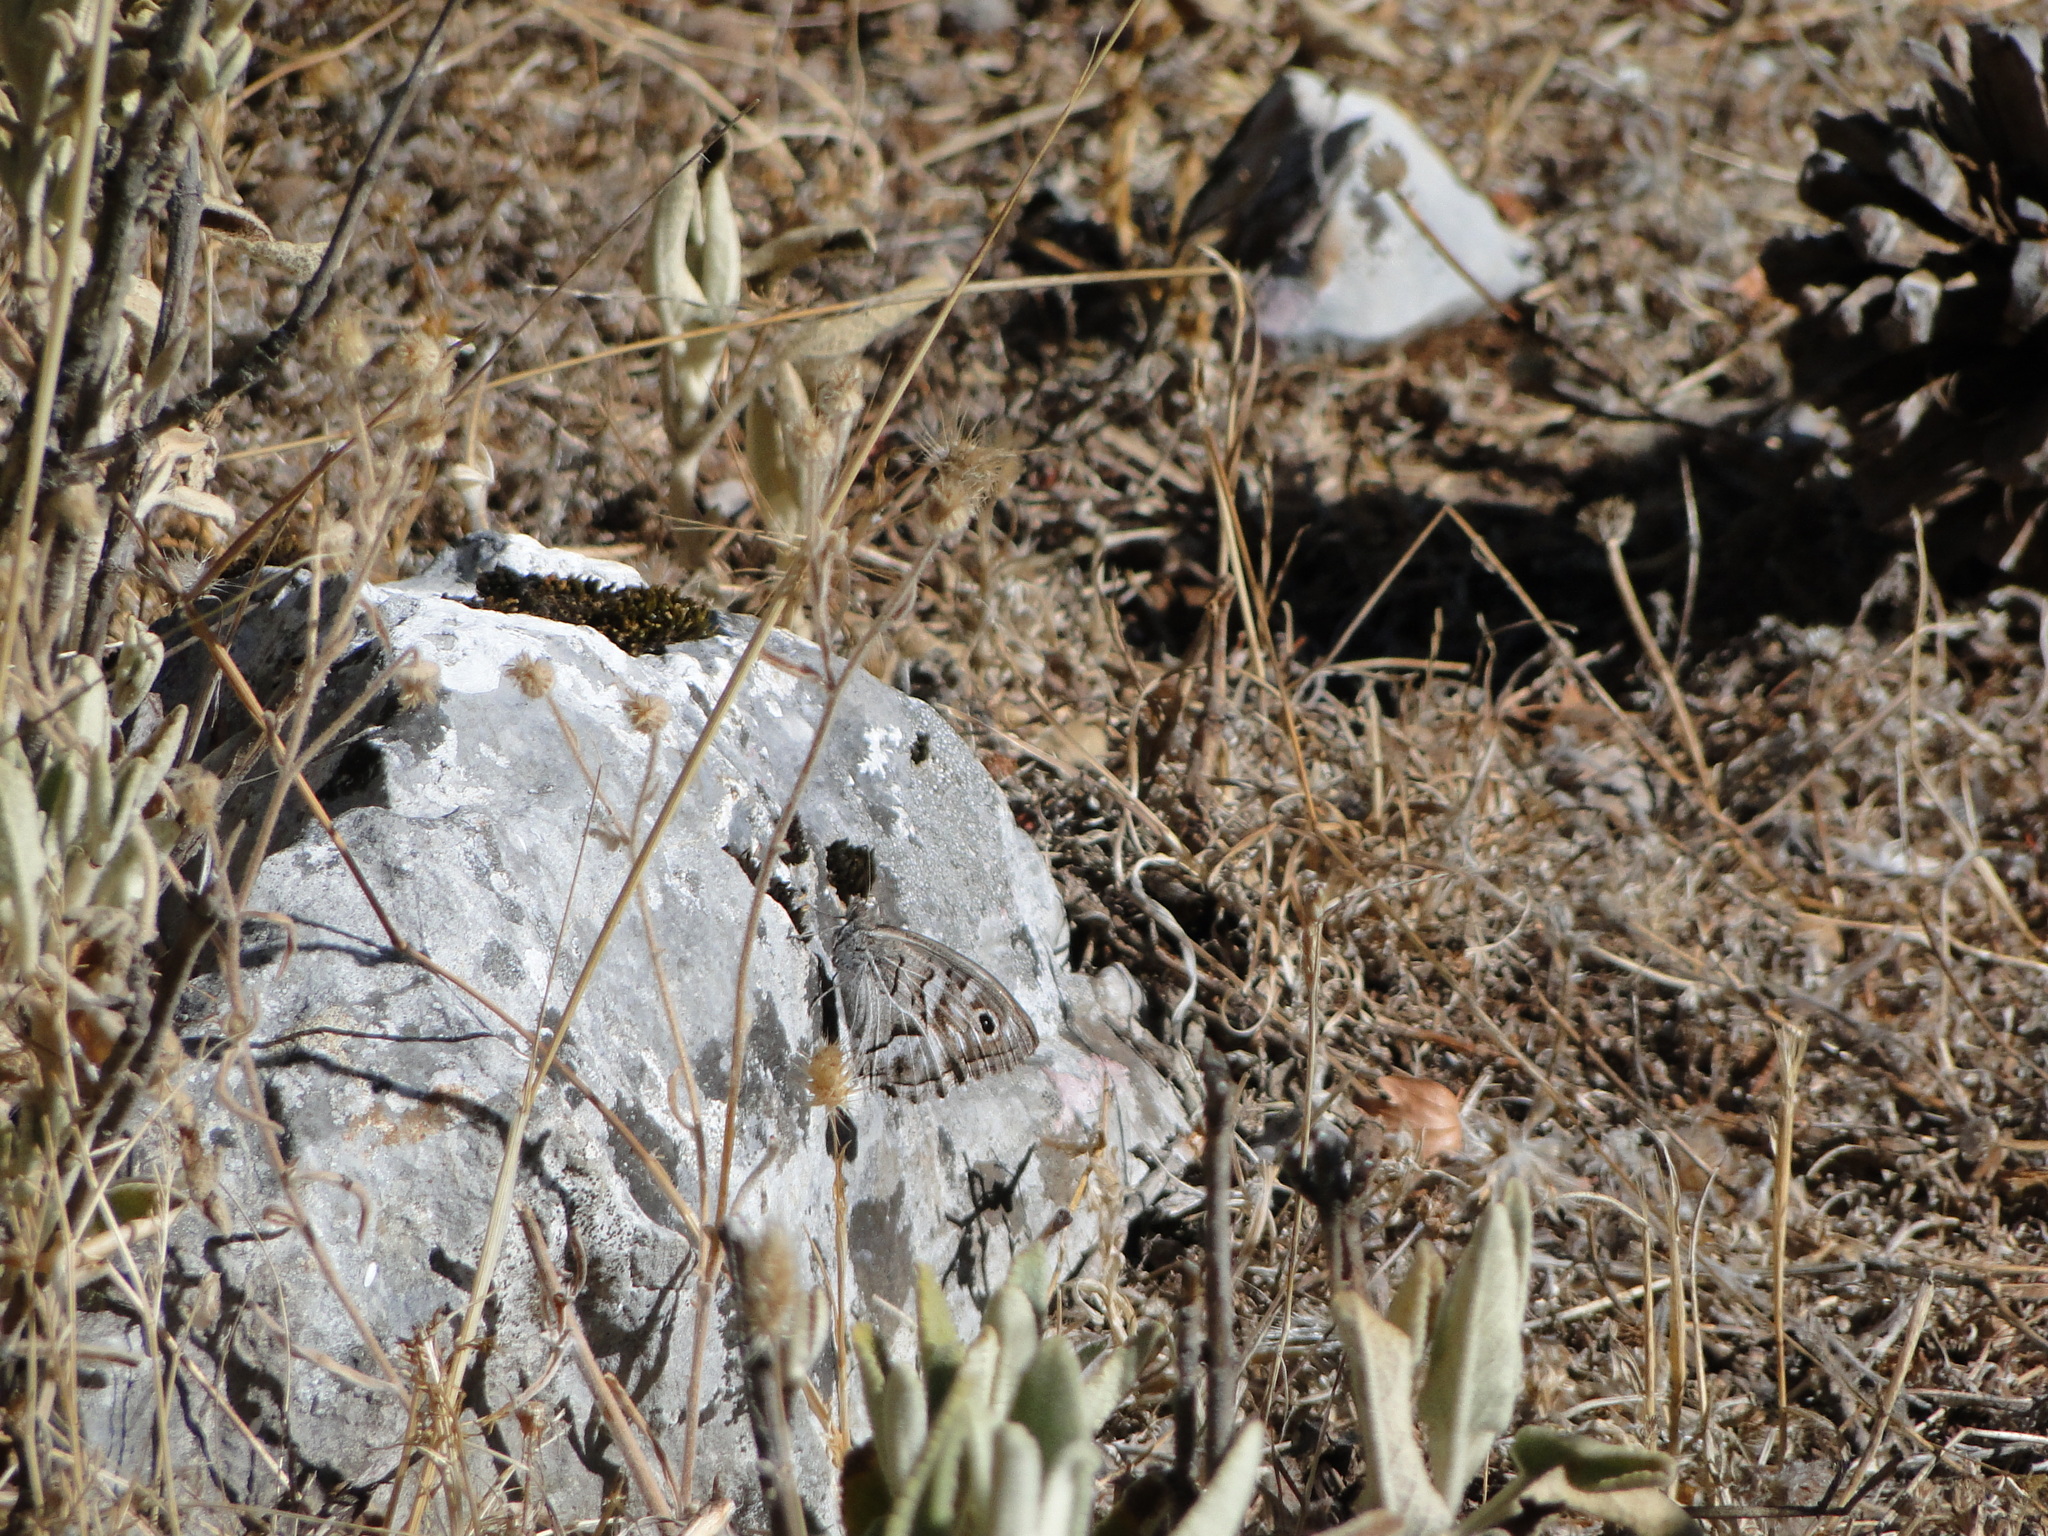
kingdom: Animalia
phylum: Arthropoda
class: Insecta
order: Lepidoptera
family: Nymphalidae
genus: Hipparchia
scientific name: Hipparchia fidia
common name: Striped grayling
